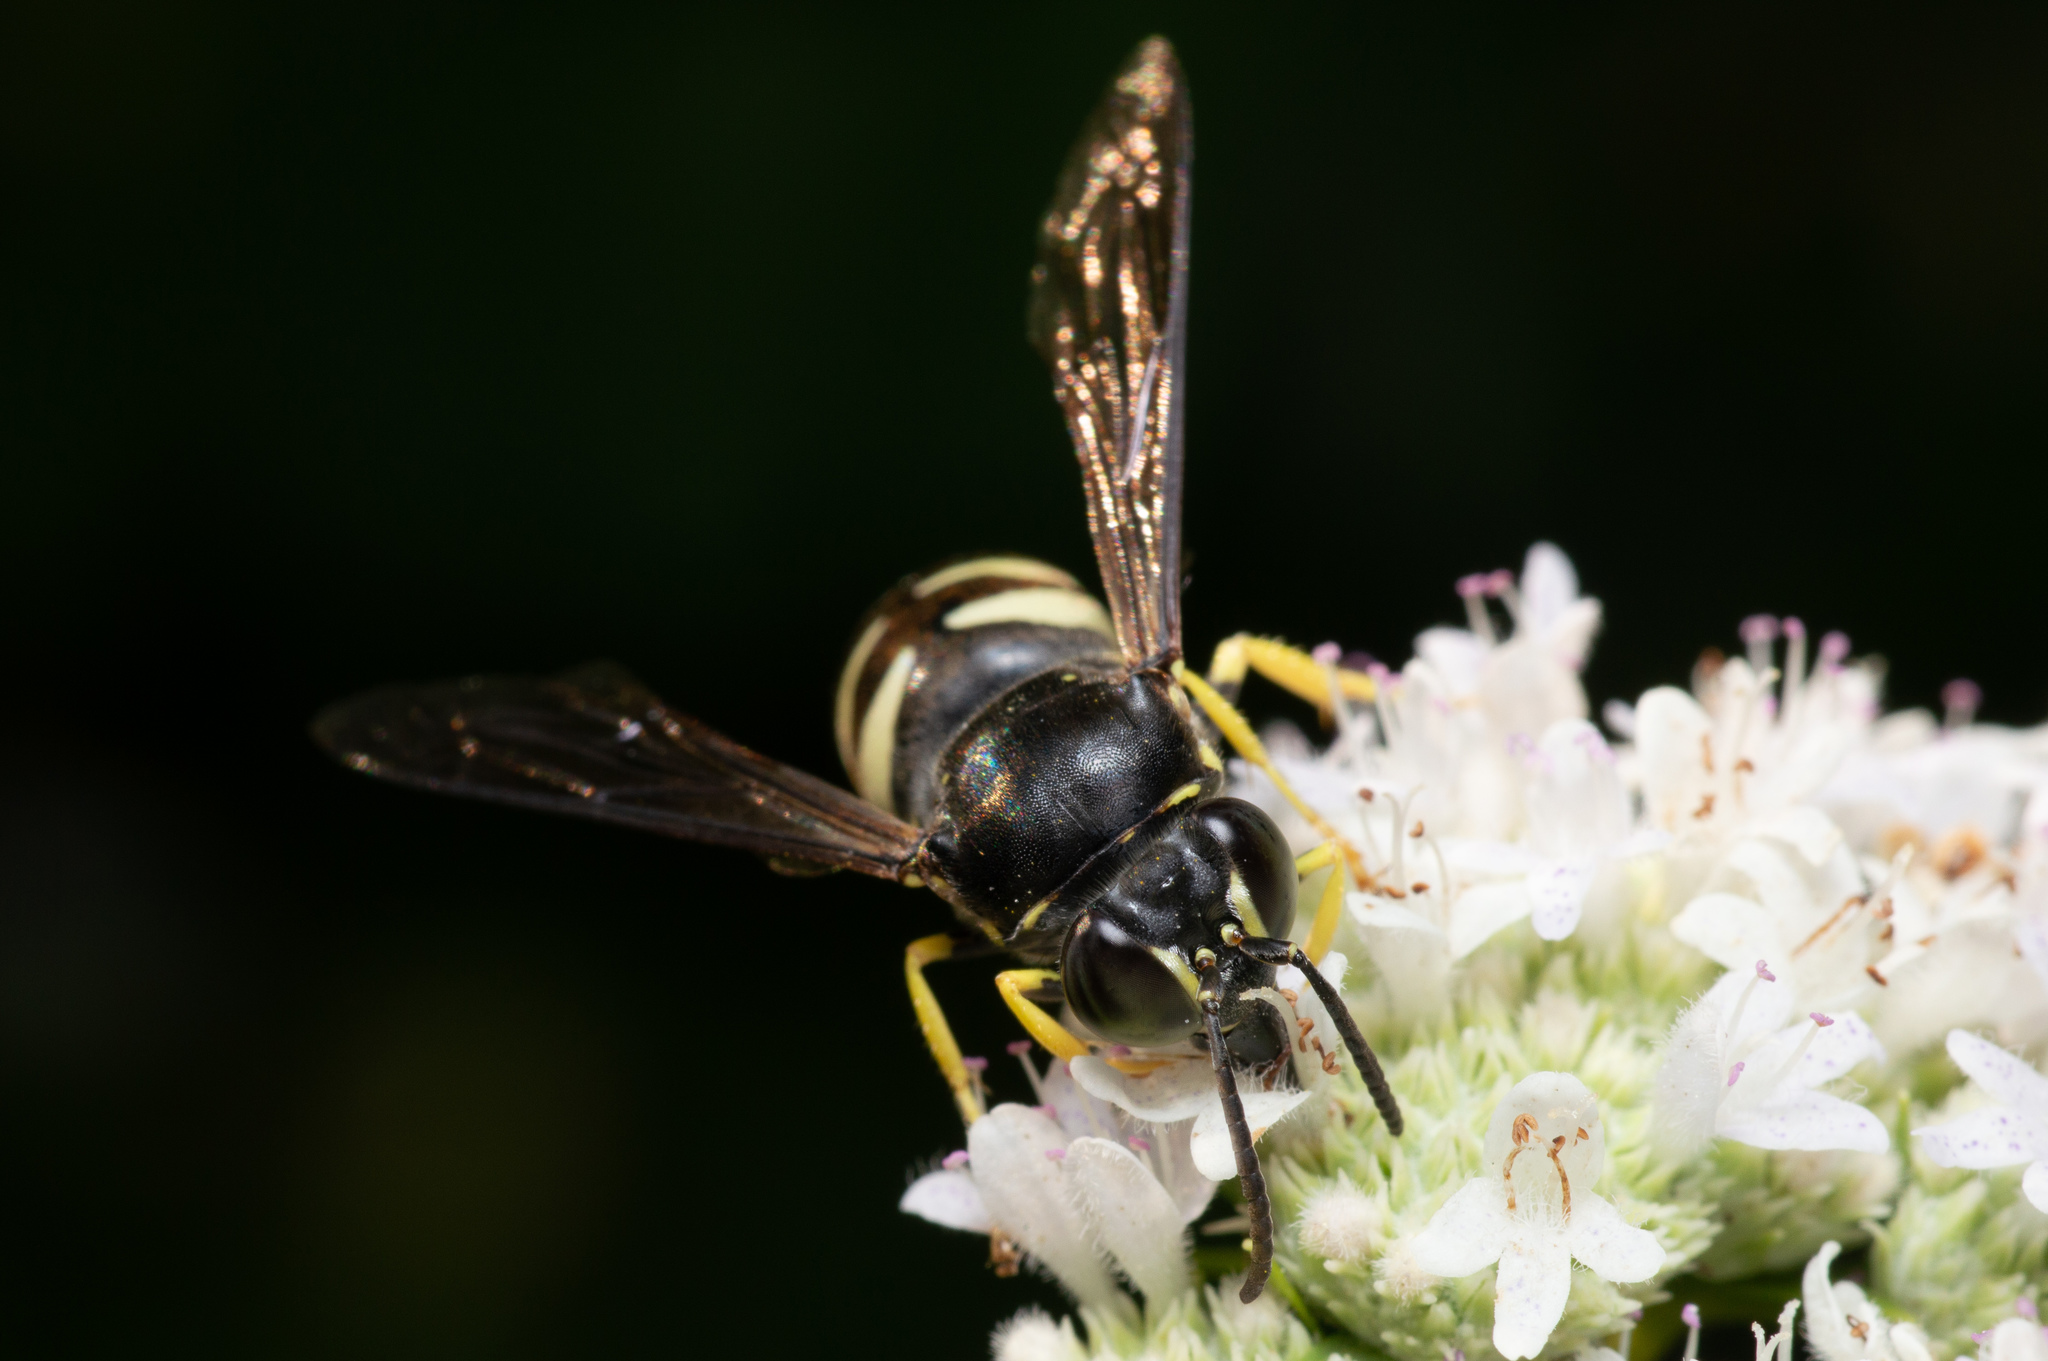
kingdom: Animalia
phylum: Arthropoda
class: Insecta
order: Hymenoptera
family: Crabronidae
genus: Bicyrtes
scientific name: Bicyrtes quadrifasciatus
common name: Four-banded stink bug hunter wasp
